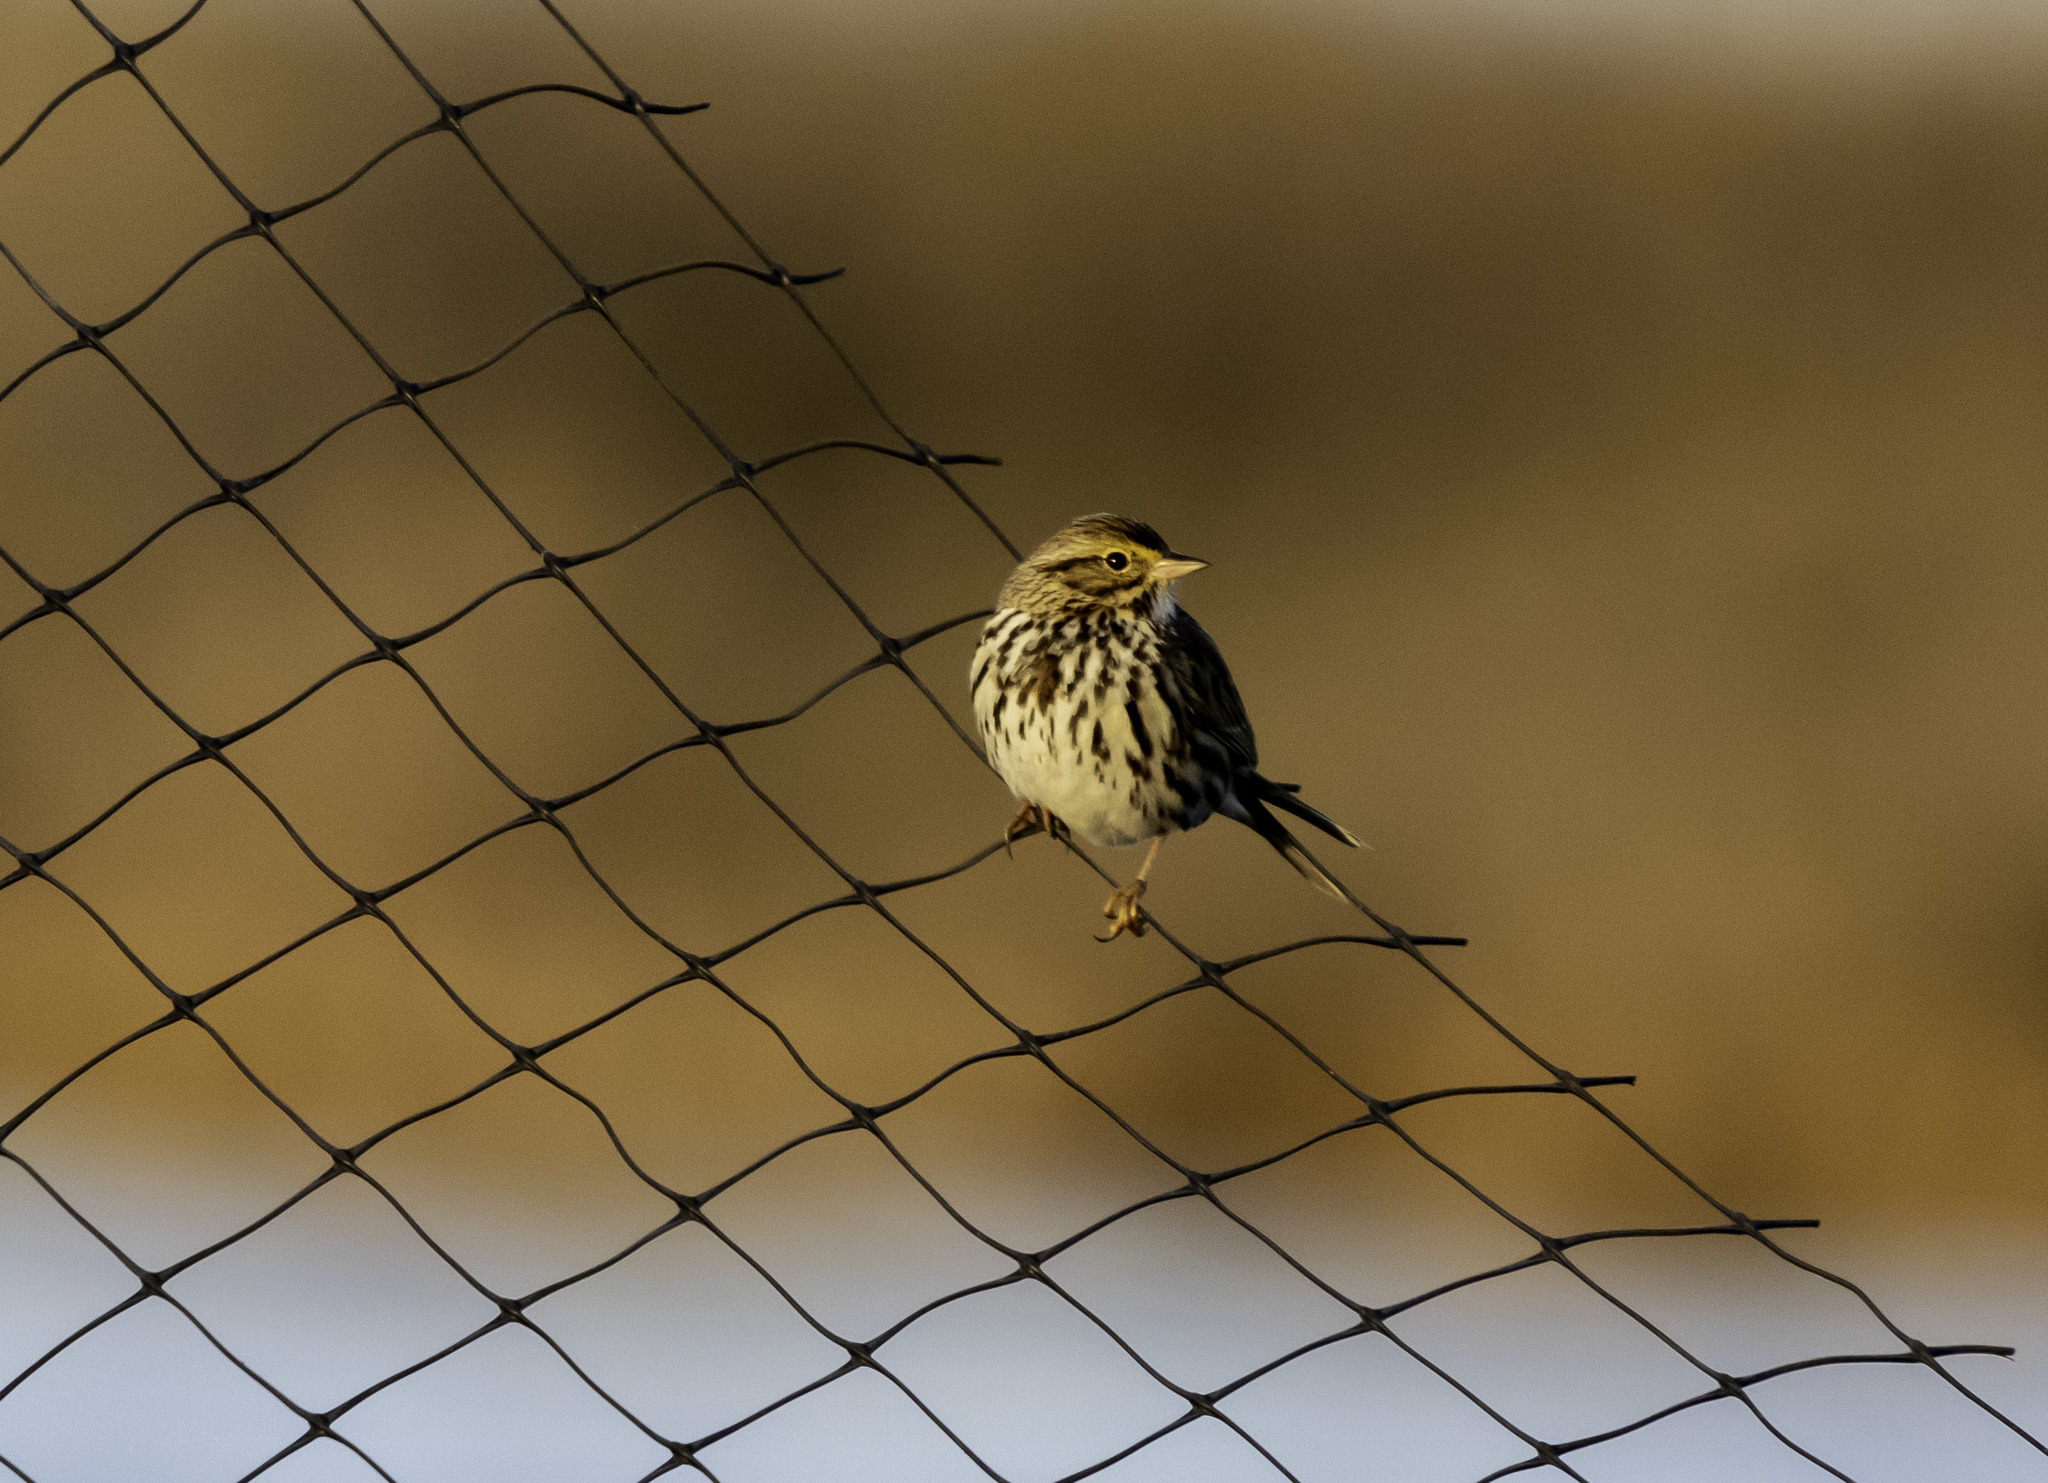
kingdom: Animalia
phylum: Chordata
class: Aves
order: Passeriformes
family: Passerellidae
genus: Passerculus
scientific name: Passerculus sandwichensis
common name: Savannah sparrow
